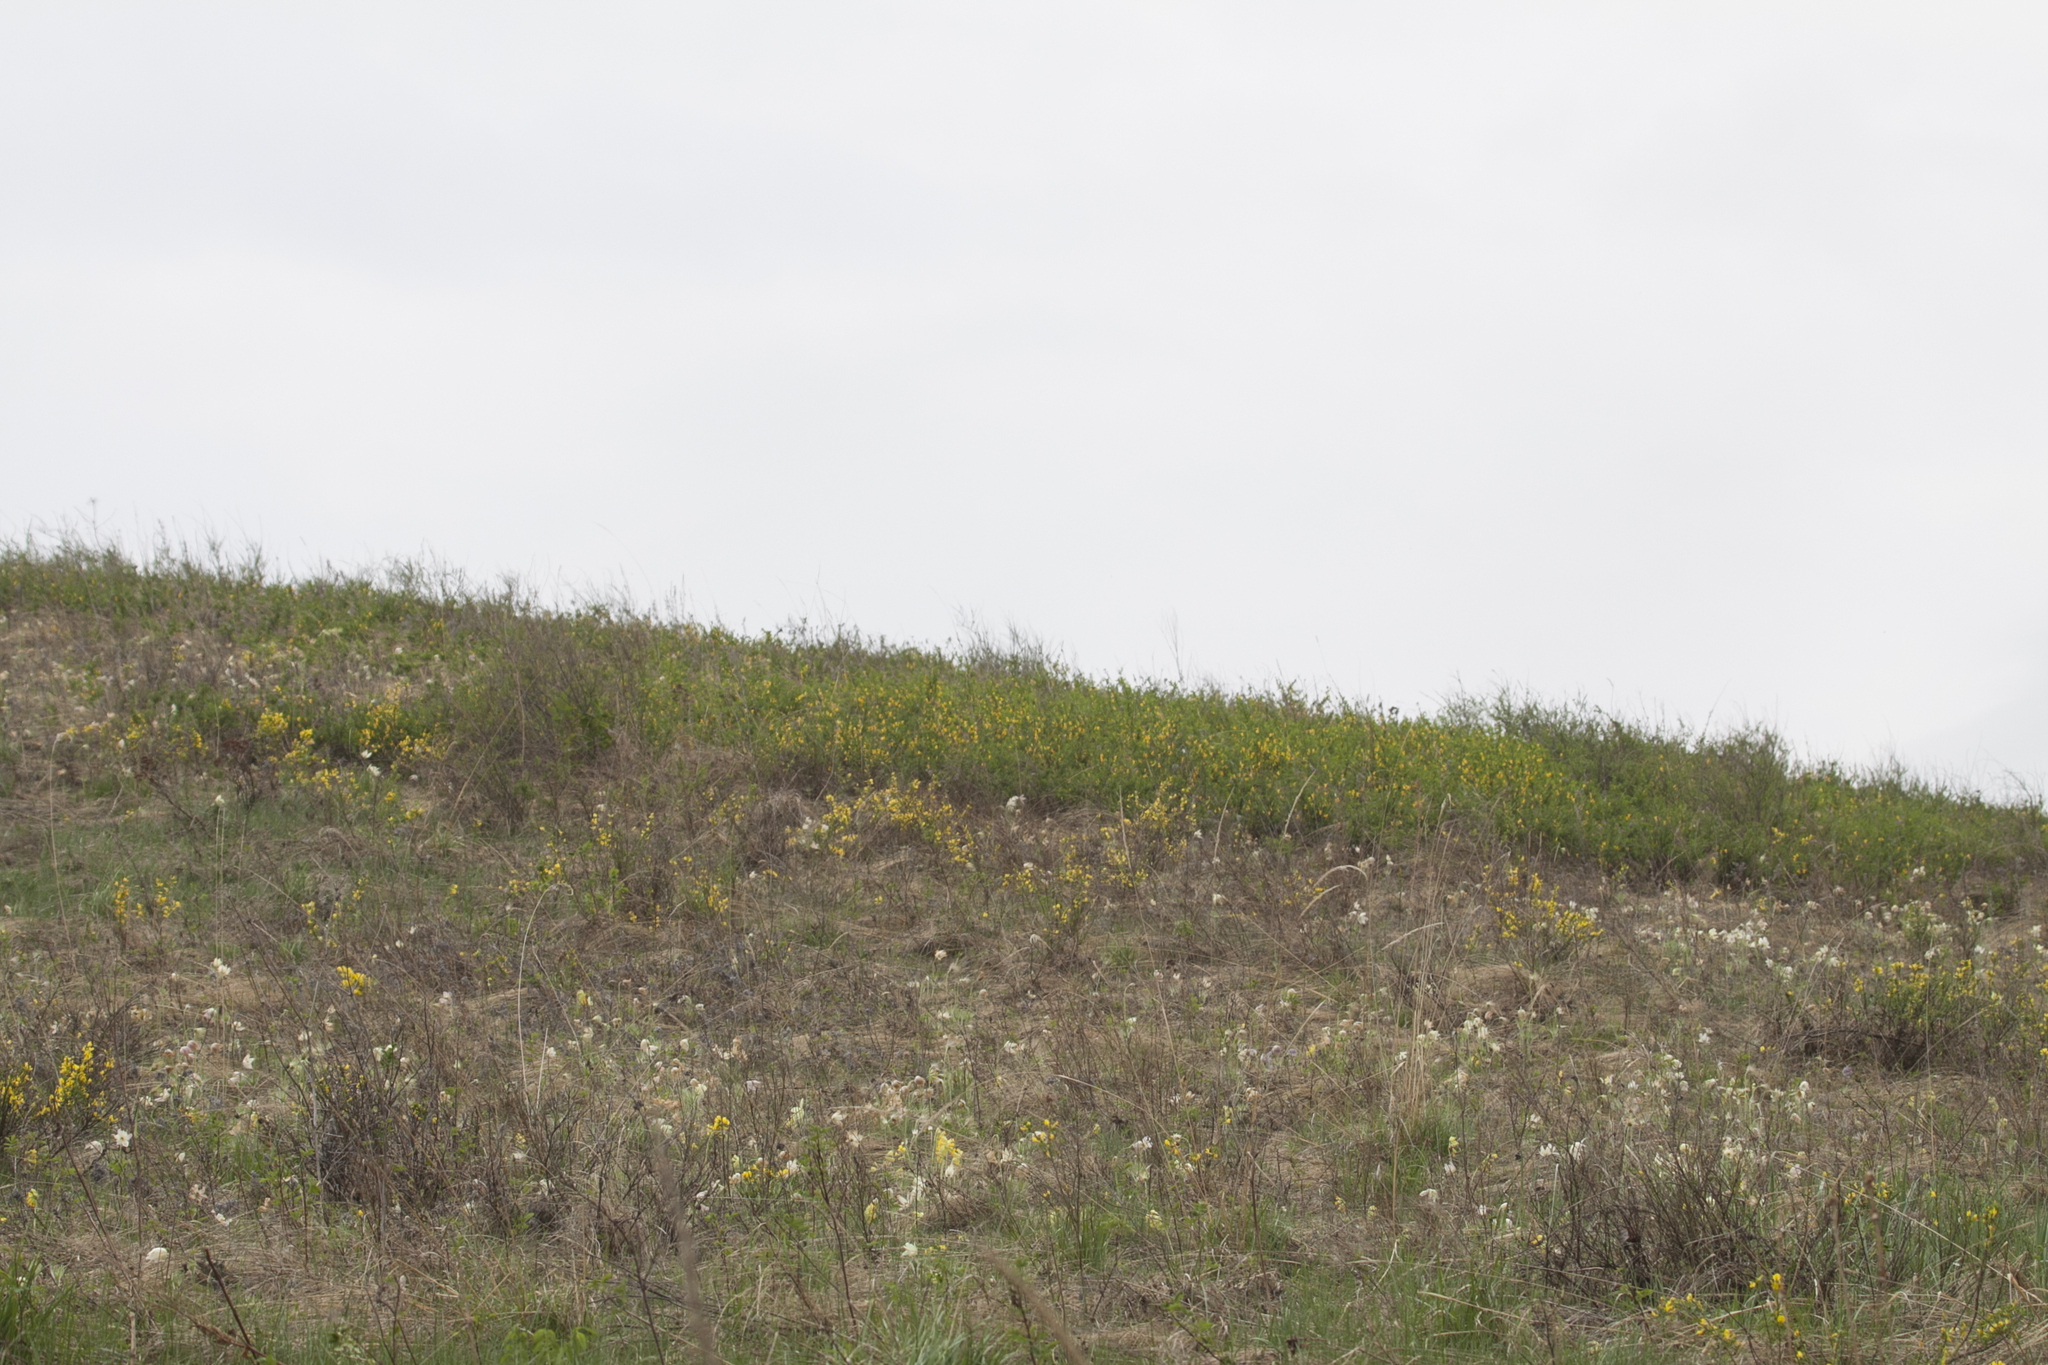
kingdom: Plantae
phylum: Tracheophyta
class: Magnoliopsida
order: Ranunculales
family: Ranunculaceae
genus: Pulsatilla
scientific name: Pulsatilla patens
